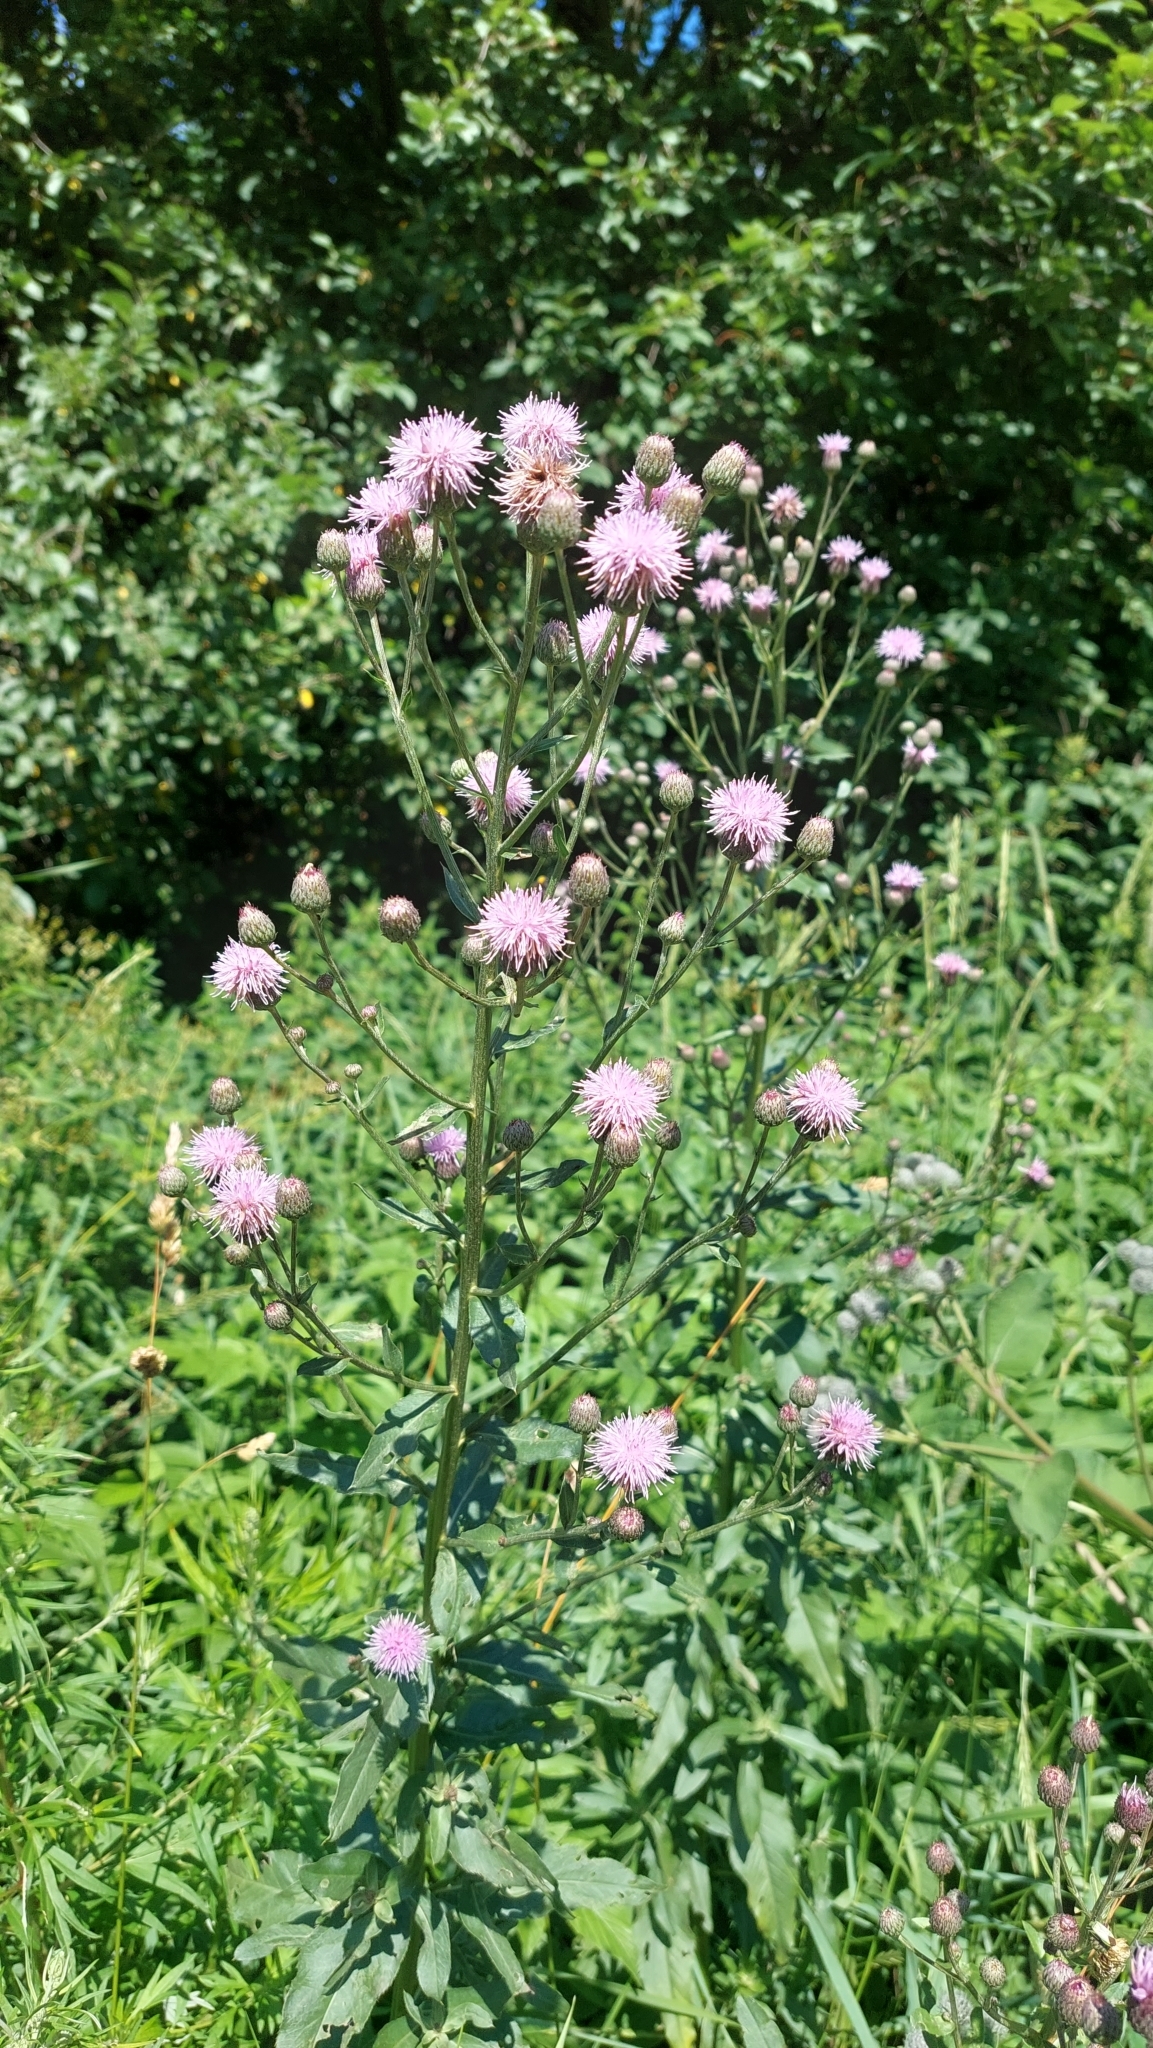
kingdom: Plantae
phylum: Tracheophyta
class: Magnoliopsida
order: Asterales
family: Asteraceae
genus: Cirsium
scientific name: Cirsium arvense
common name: Creeping thistle
